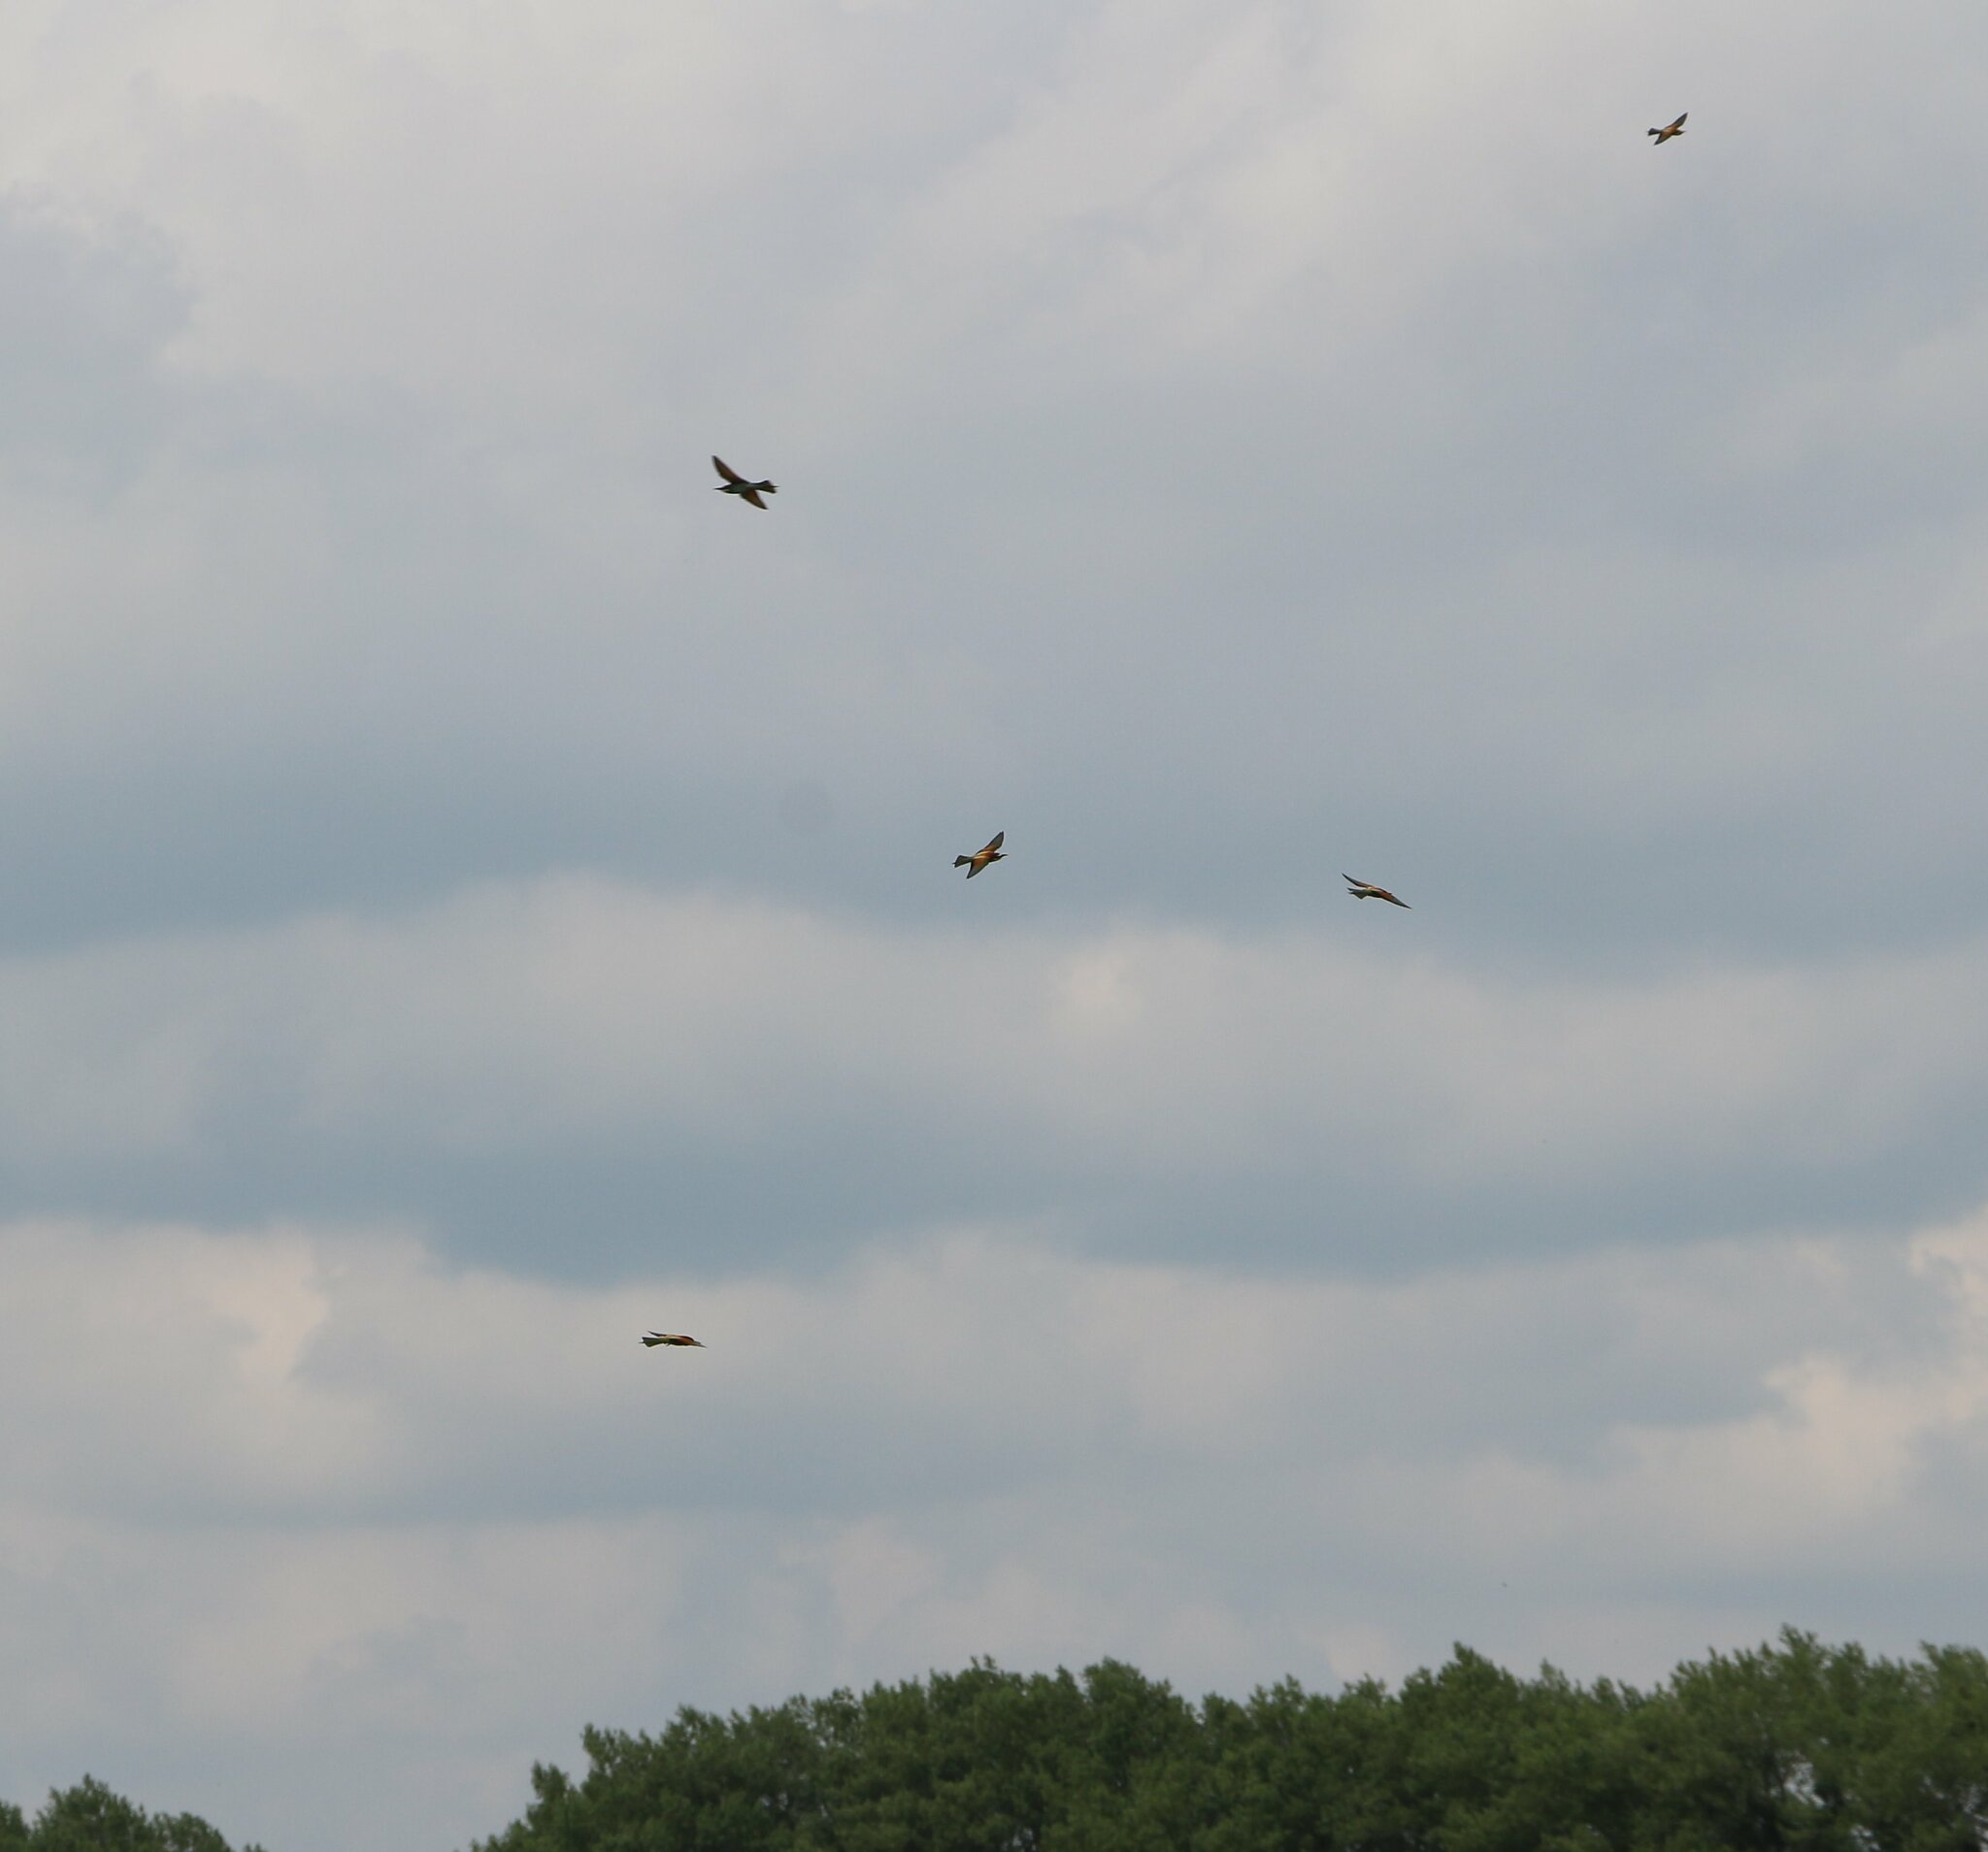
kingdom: Animalia
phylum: Chordata
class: Aves
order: Coraciiformes
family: Meropidae
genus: Merops
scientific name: Merops apiaster
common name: European bee-eater
